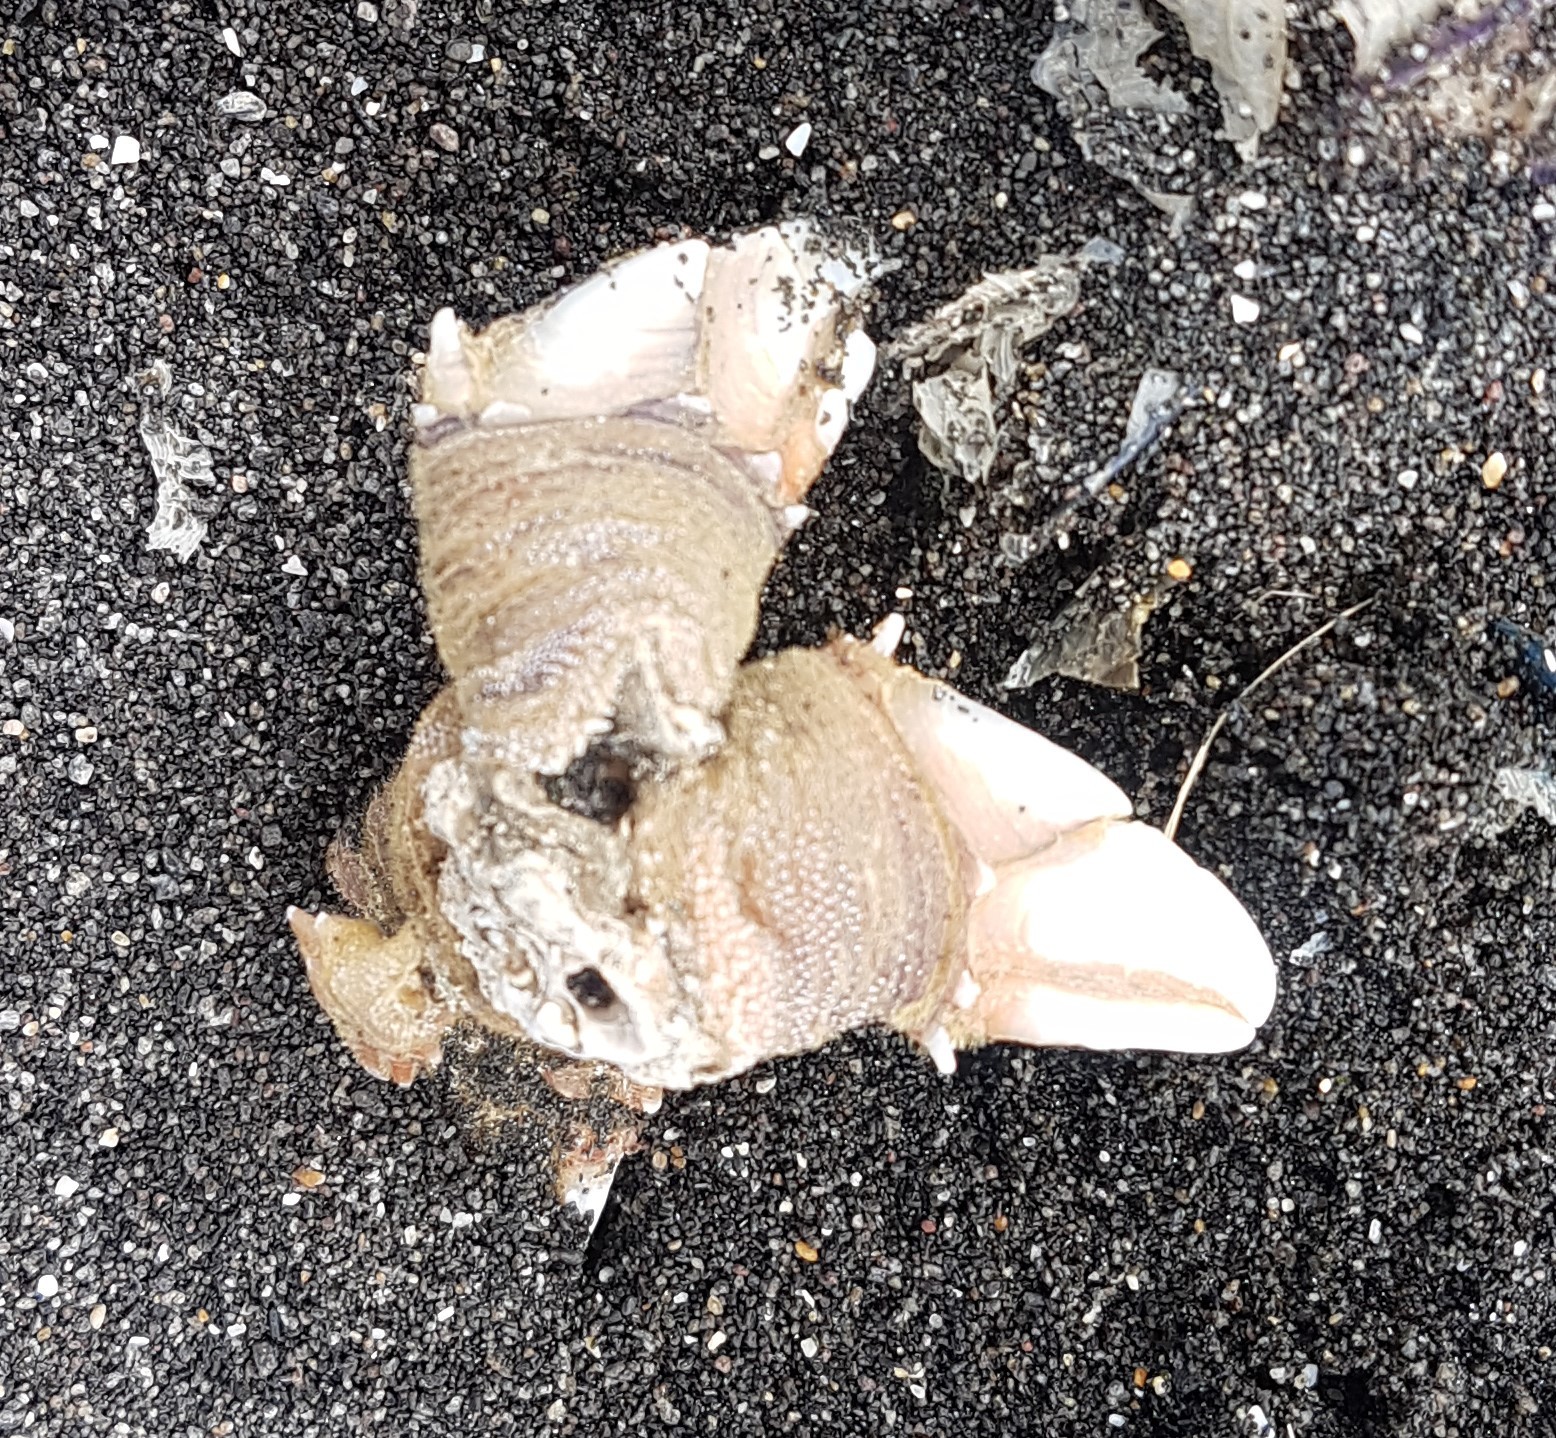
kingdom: Animalia
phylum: Arthropoda
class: Maxillopoda
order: Pedunculata
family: Calanticidae
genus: Calantica
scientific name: Calantica spinosa
